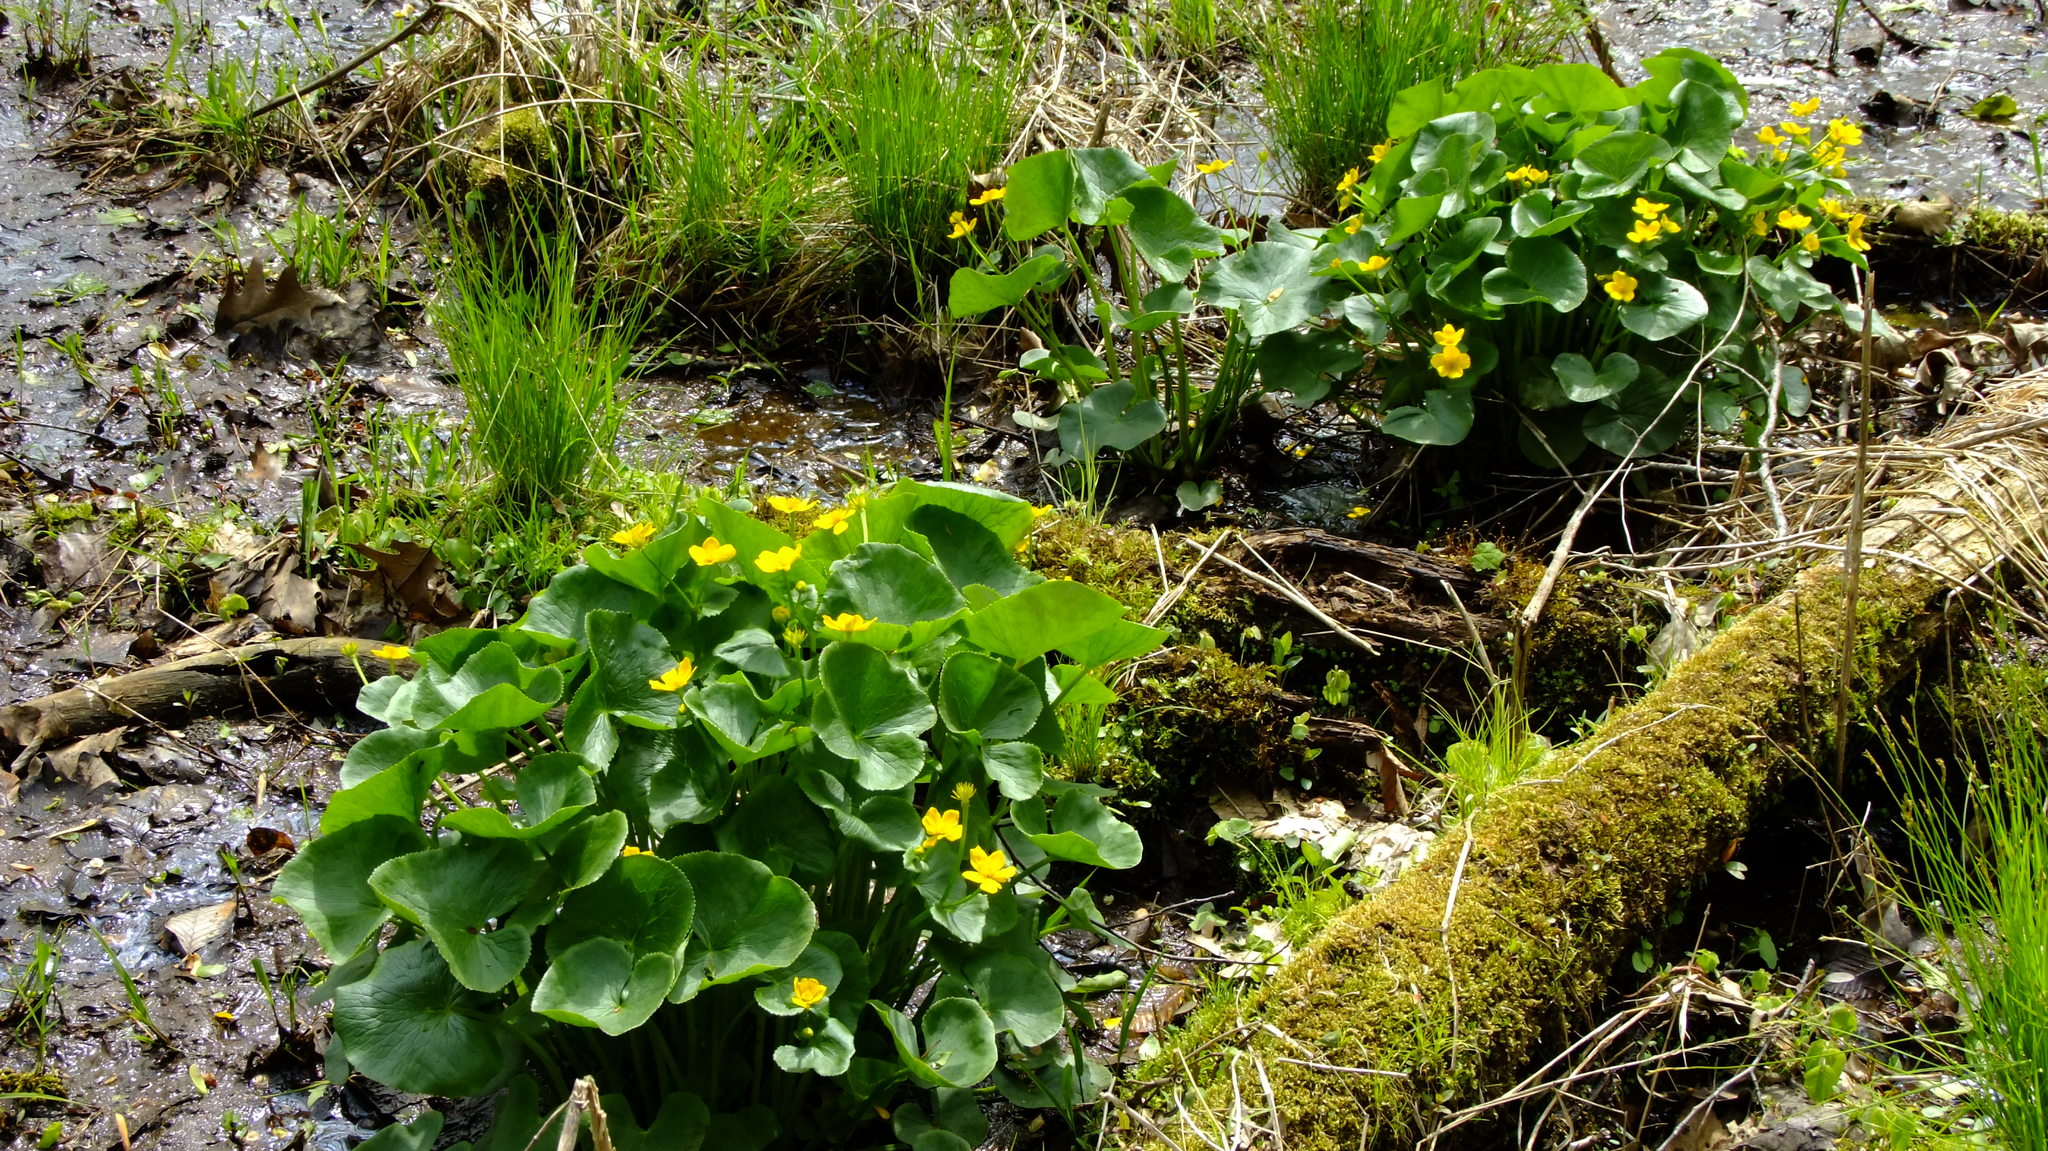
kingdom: Plantae
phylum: Tracheophyta
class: Magnoliopsida
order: Ranunculales
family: Ranunculaceae
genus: Caltha
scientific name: Caltha palustris
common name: Marsh marigold
